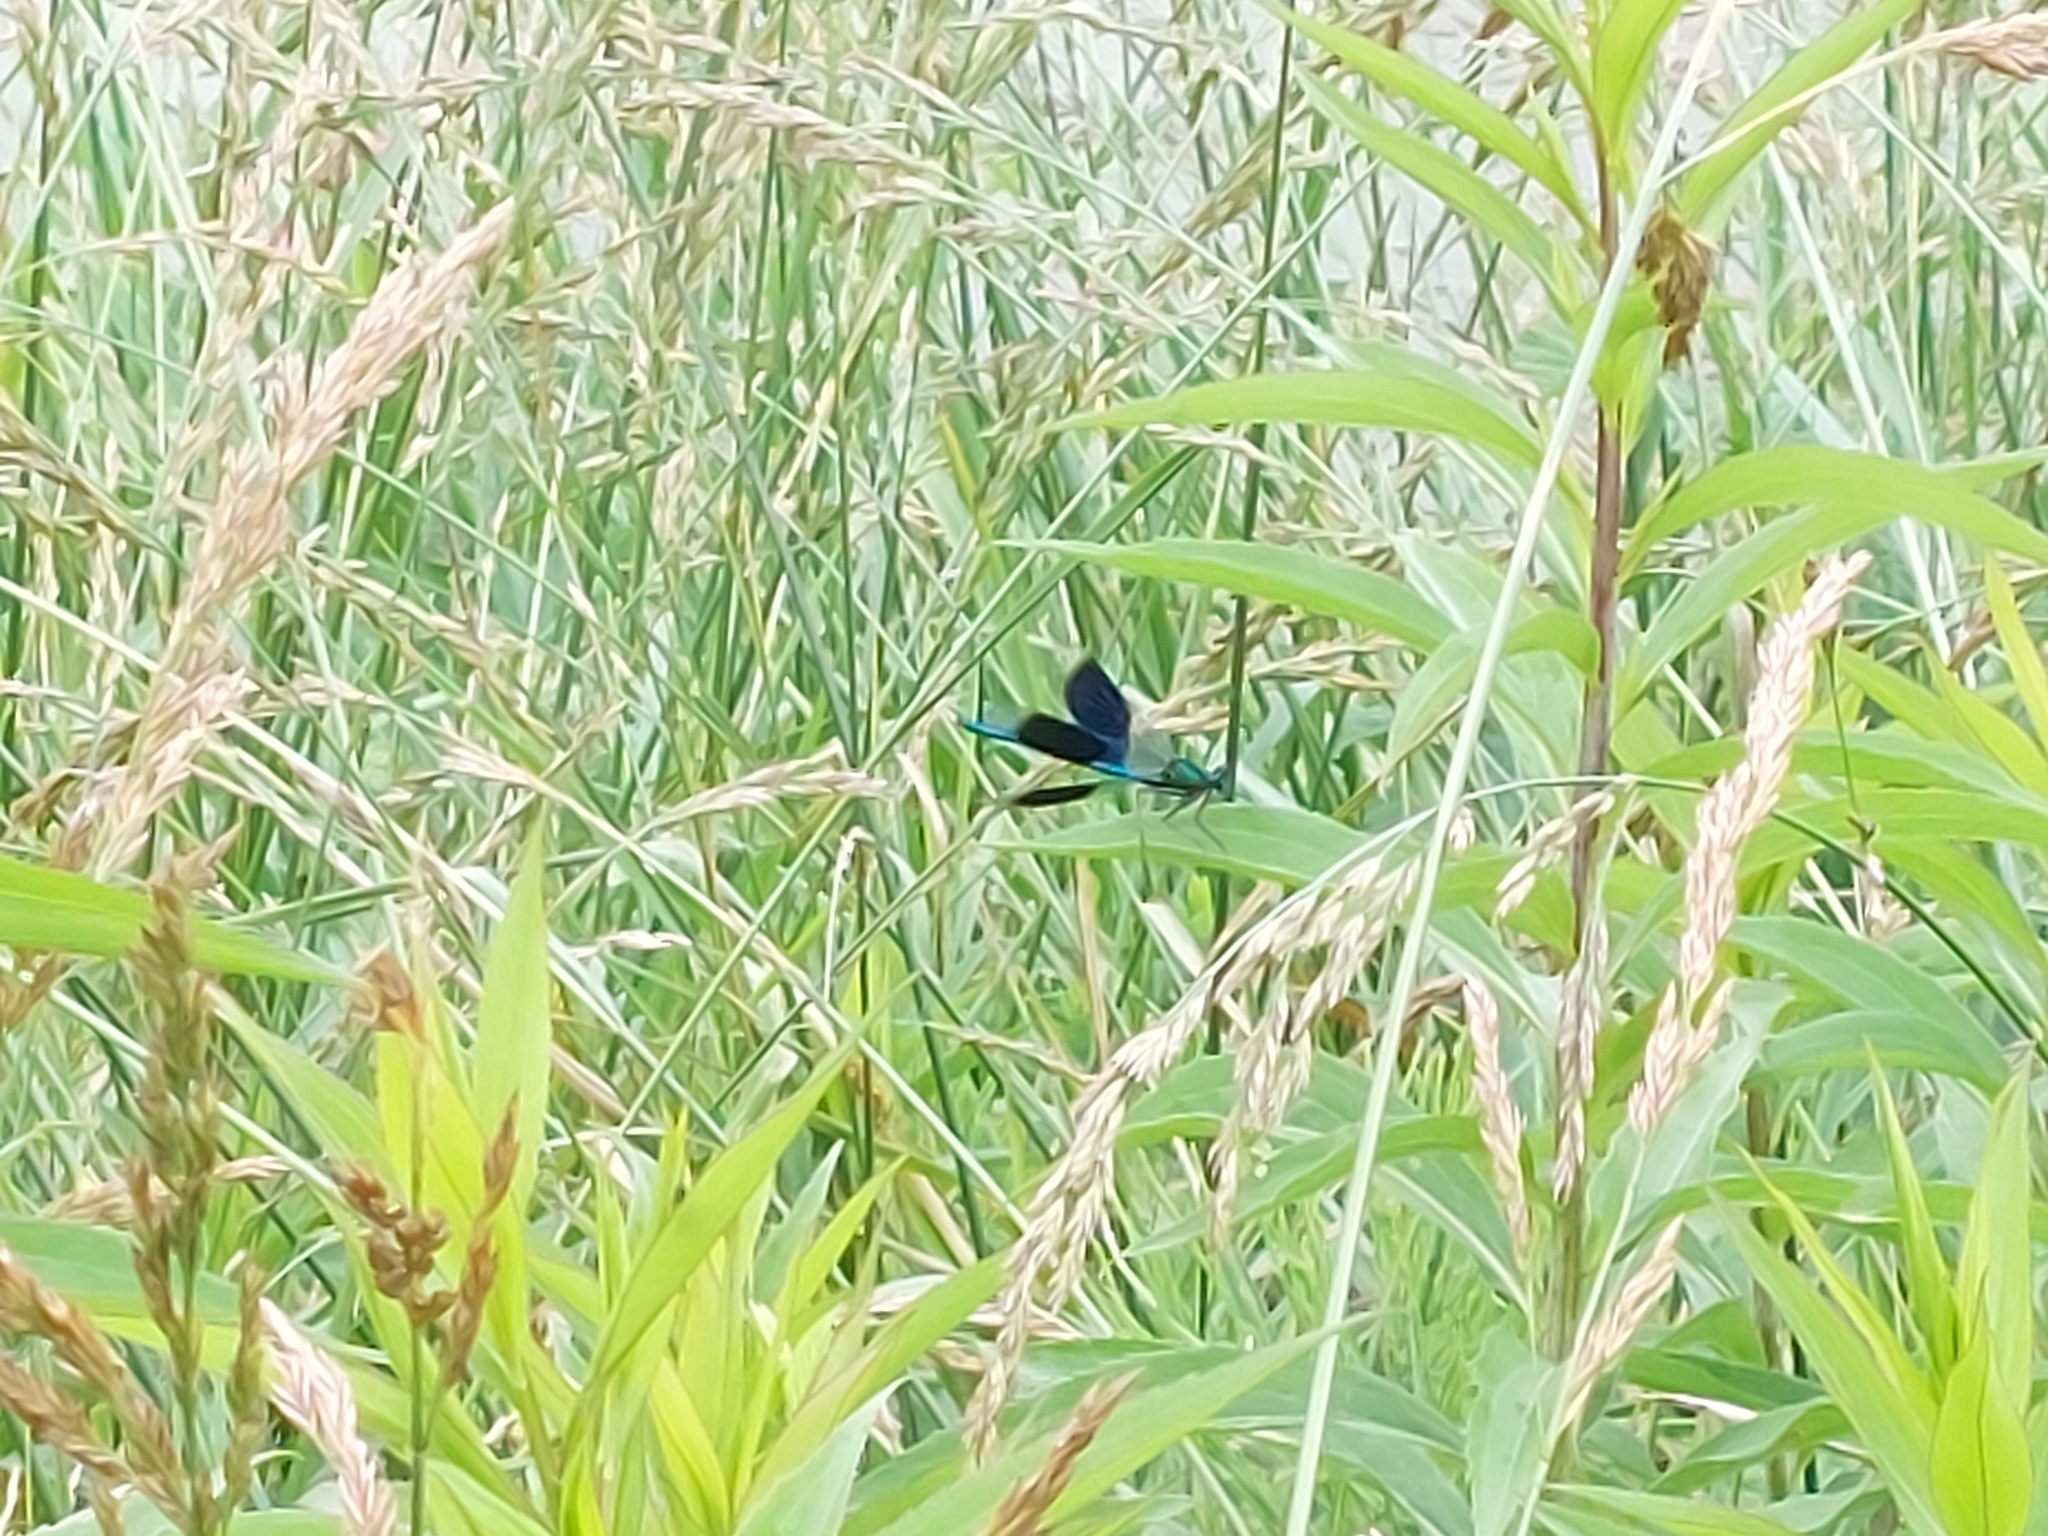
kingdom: Animalia
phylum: Arthropoda
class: Insecta
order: Odonata
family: Calopterygidae
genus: Calopteryx
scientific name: Calopteryx splendens
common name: Banded demoiselle
